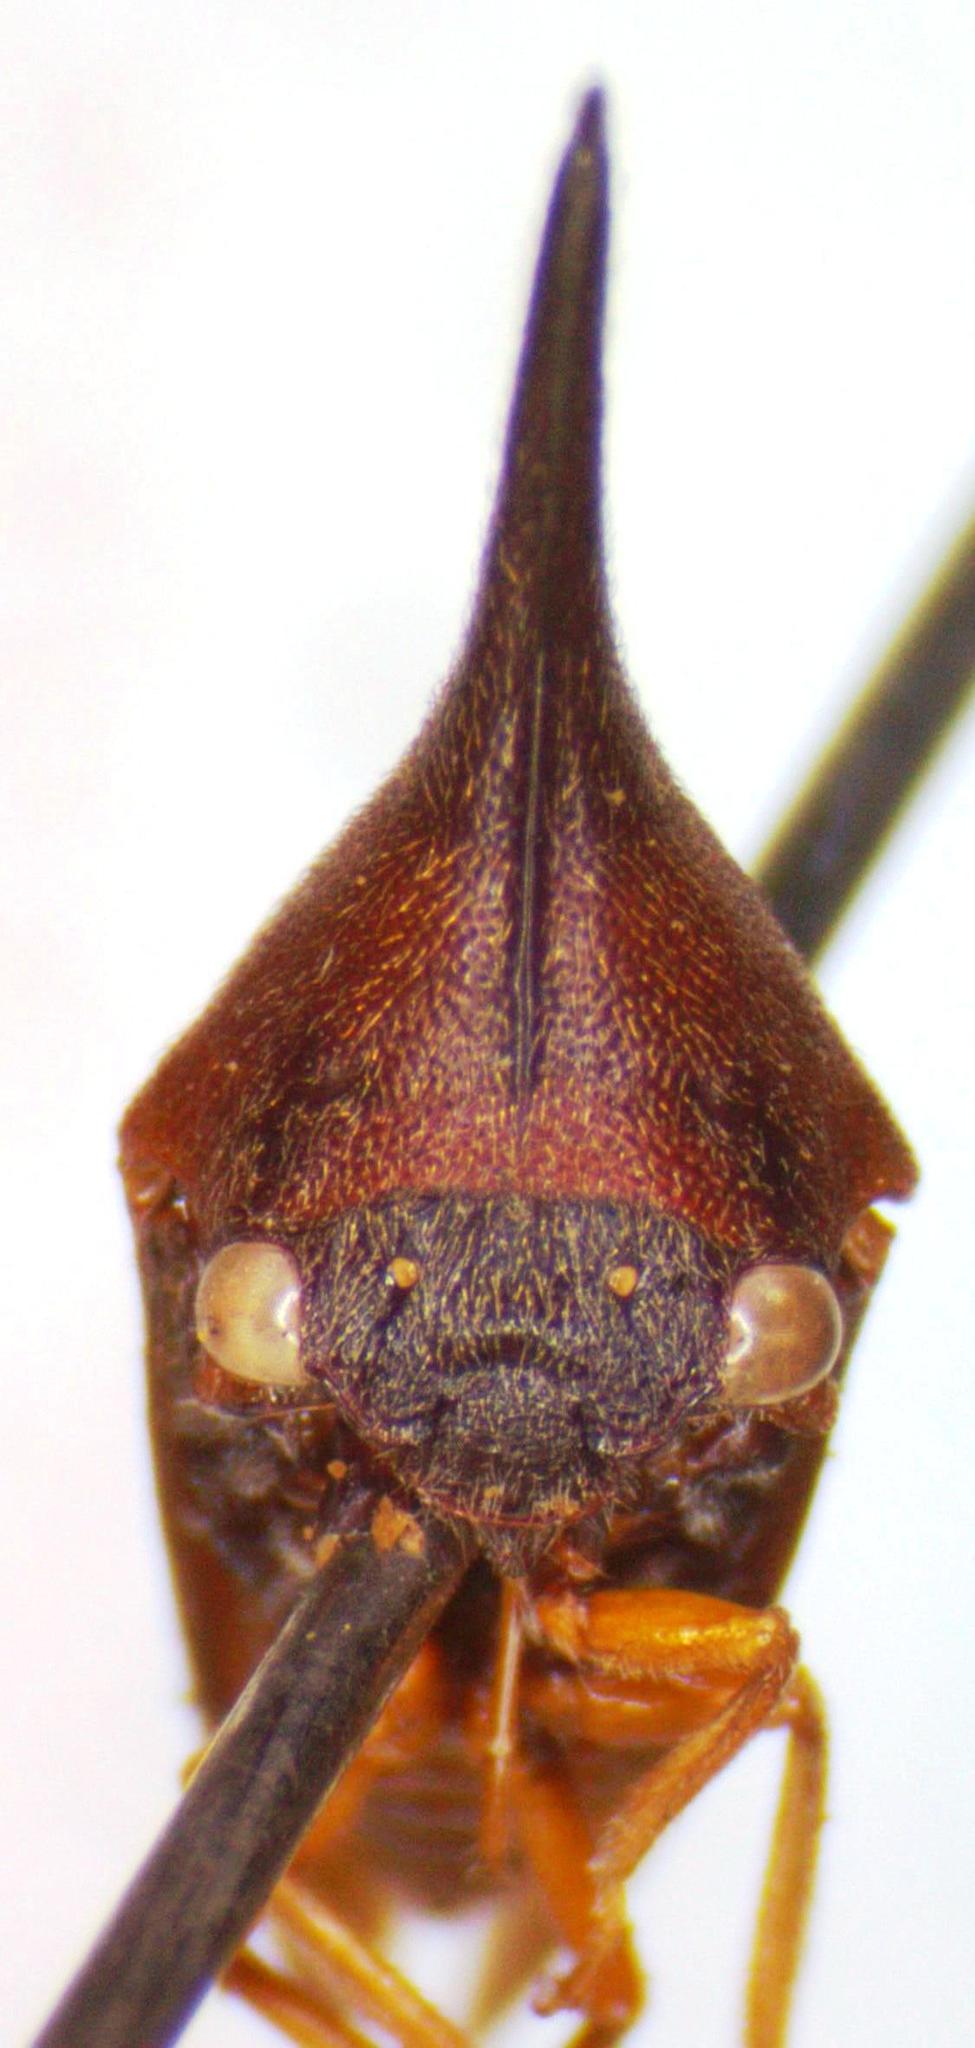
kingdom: Animalia
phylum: Arthropoda
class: Insecta
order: Hemiptera
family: Membracidae
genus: Guayaquila
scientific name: Guayaquila gracilicornis
